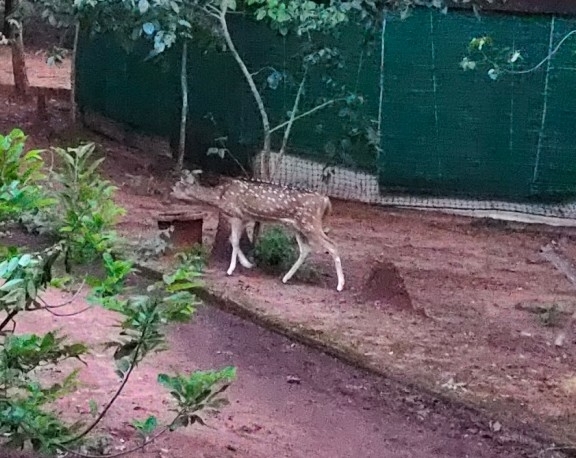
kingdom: Animalia
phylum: Chordata
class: Mammalia
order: Artiodactyla
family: Cervidae
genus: Axis
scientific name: Axis axis
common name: Chital
